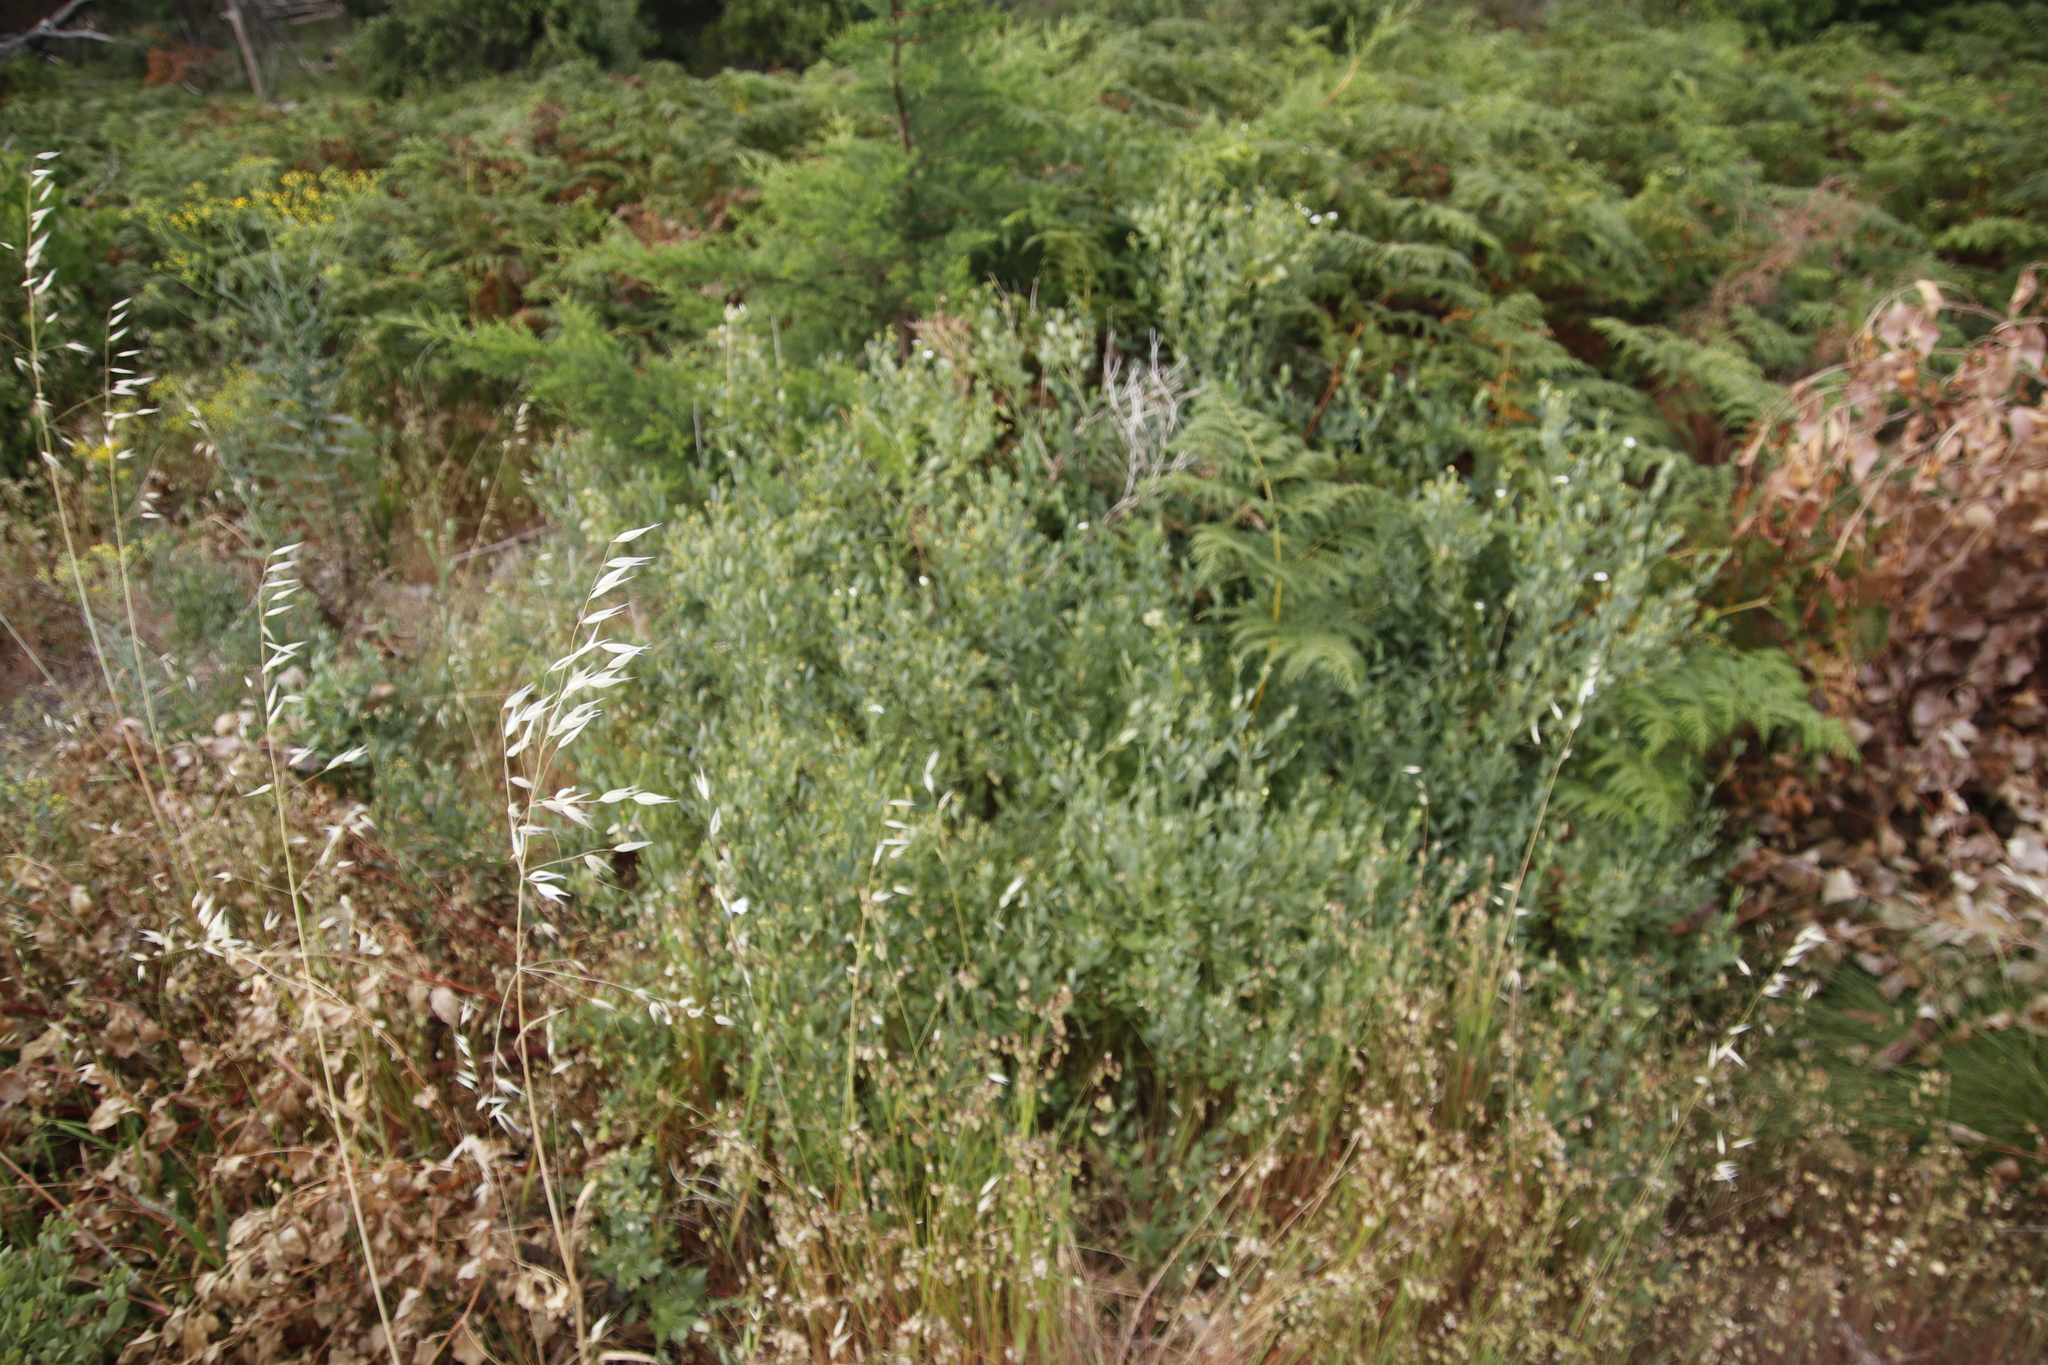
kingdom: Plantae
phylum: Tracheophyta
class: Magnoliopsida
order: Solanales
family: Montiniaceae
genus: Montinia
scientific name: Montinia caryophyllacea
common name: Wild clove-bush
